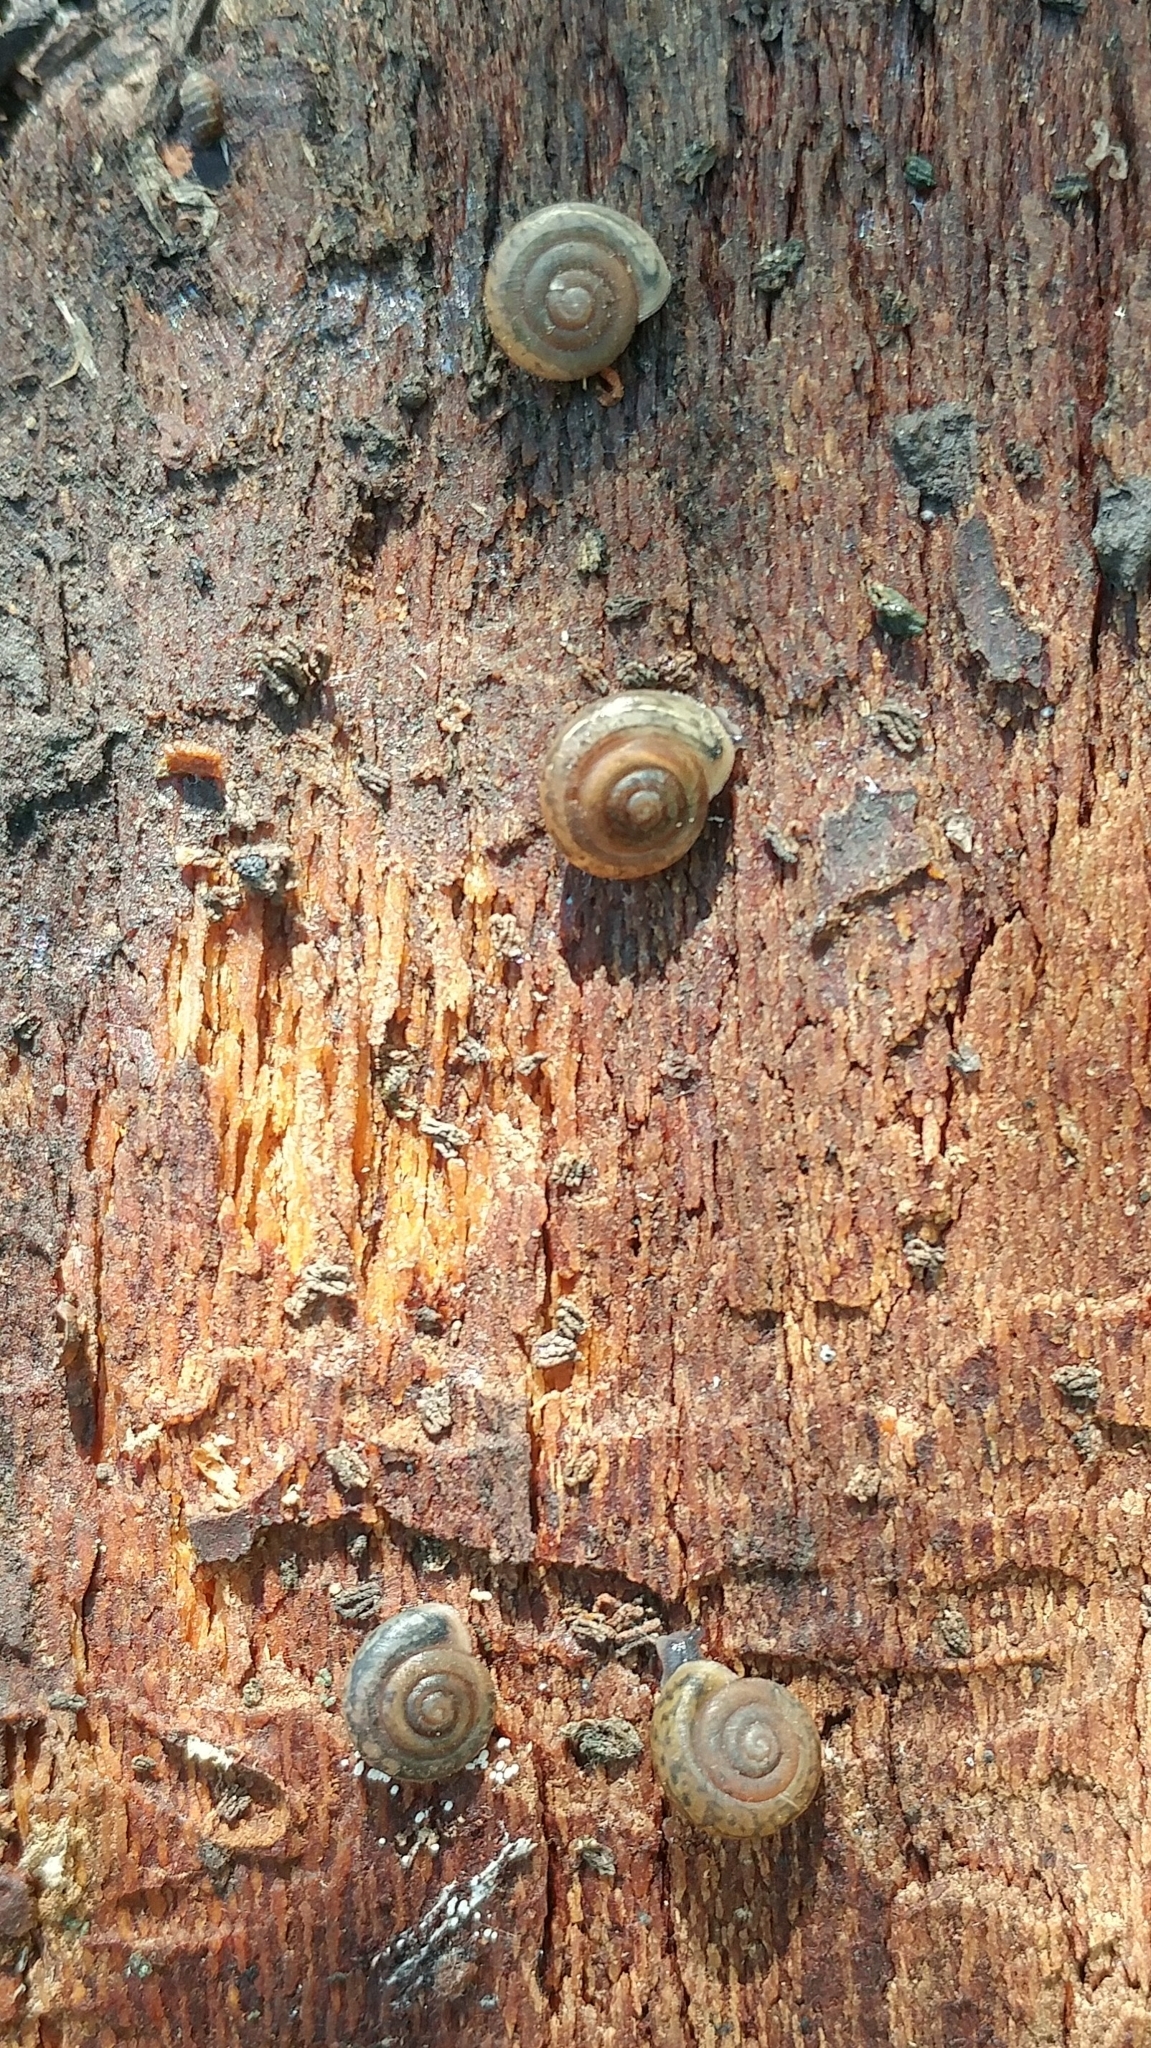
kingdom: Animalia
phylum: Mollusca
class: Gastropoda
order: Stylommatophora
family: Polygyridae
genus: Ashmunella
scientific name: Ashmunella rhyssa
